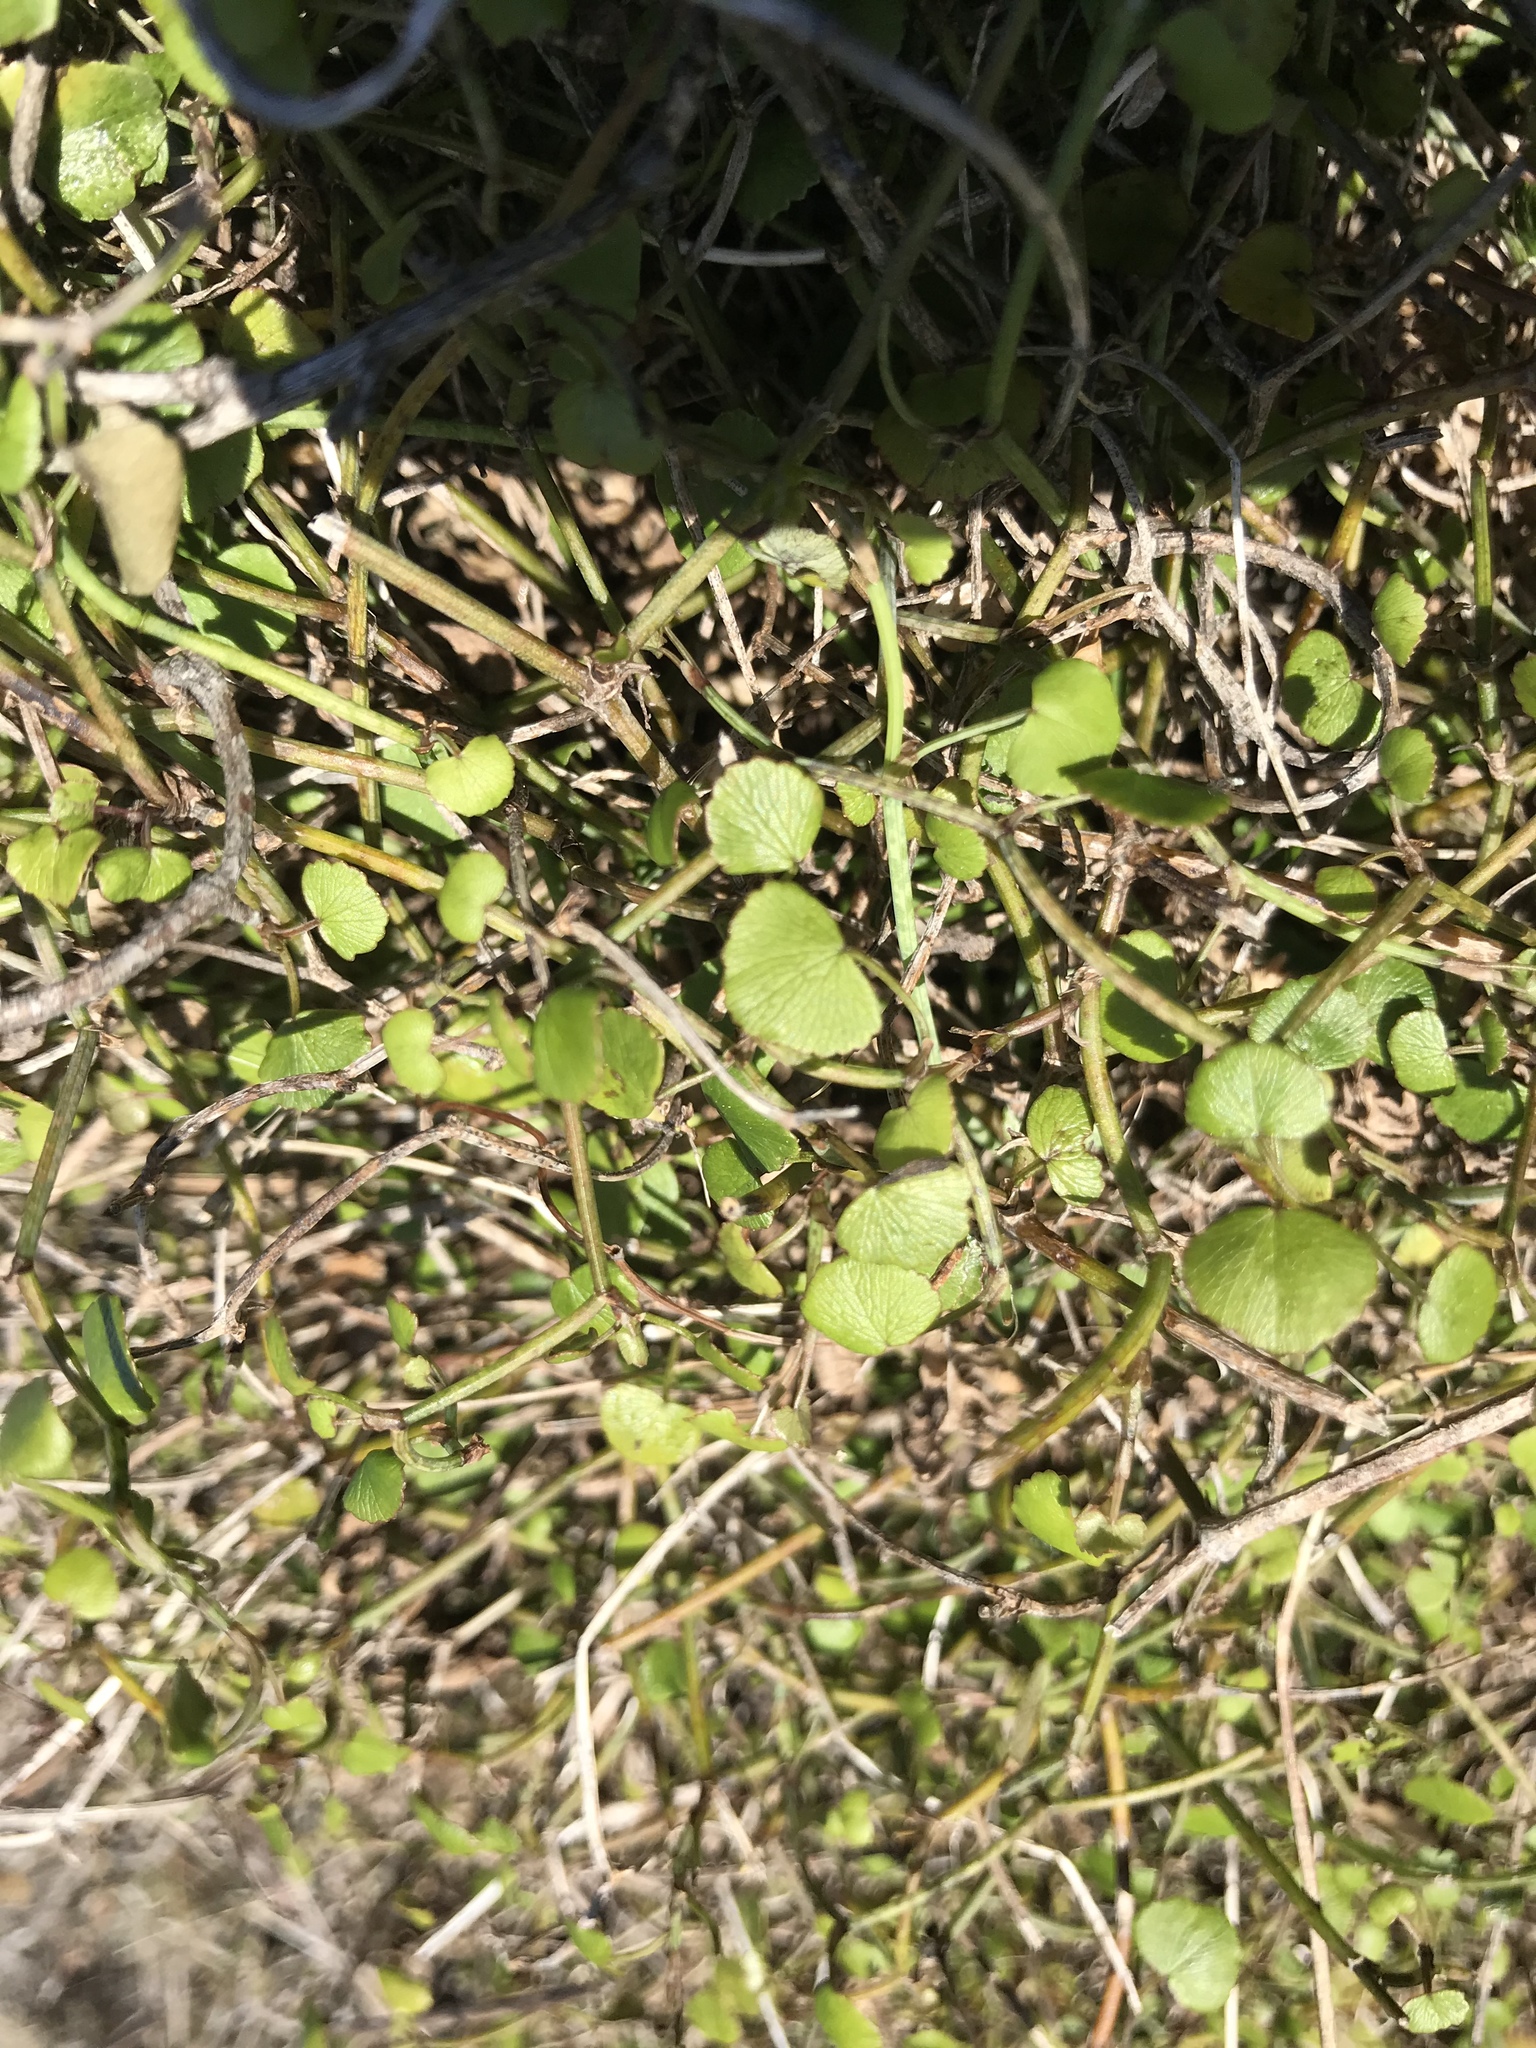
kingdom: Plantae
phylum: Tracheophyta
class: Magnoliopsida
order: Apiales
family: Apiaceae
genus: Scandia
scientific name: Scandia geniculata
